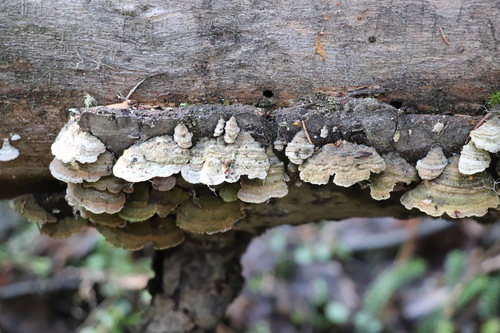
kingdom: Fungi
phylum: Basidiomycota
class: Agaricomycetes
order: Hymenochaetales
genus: Trichaptum
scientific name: Trichaptum fuscoviolaceum
